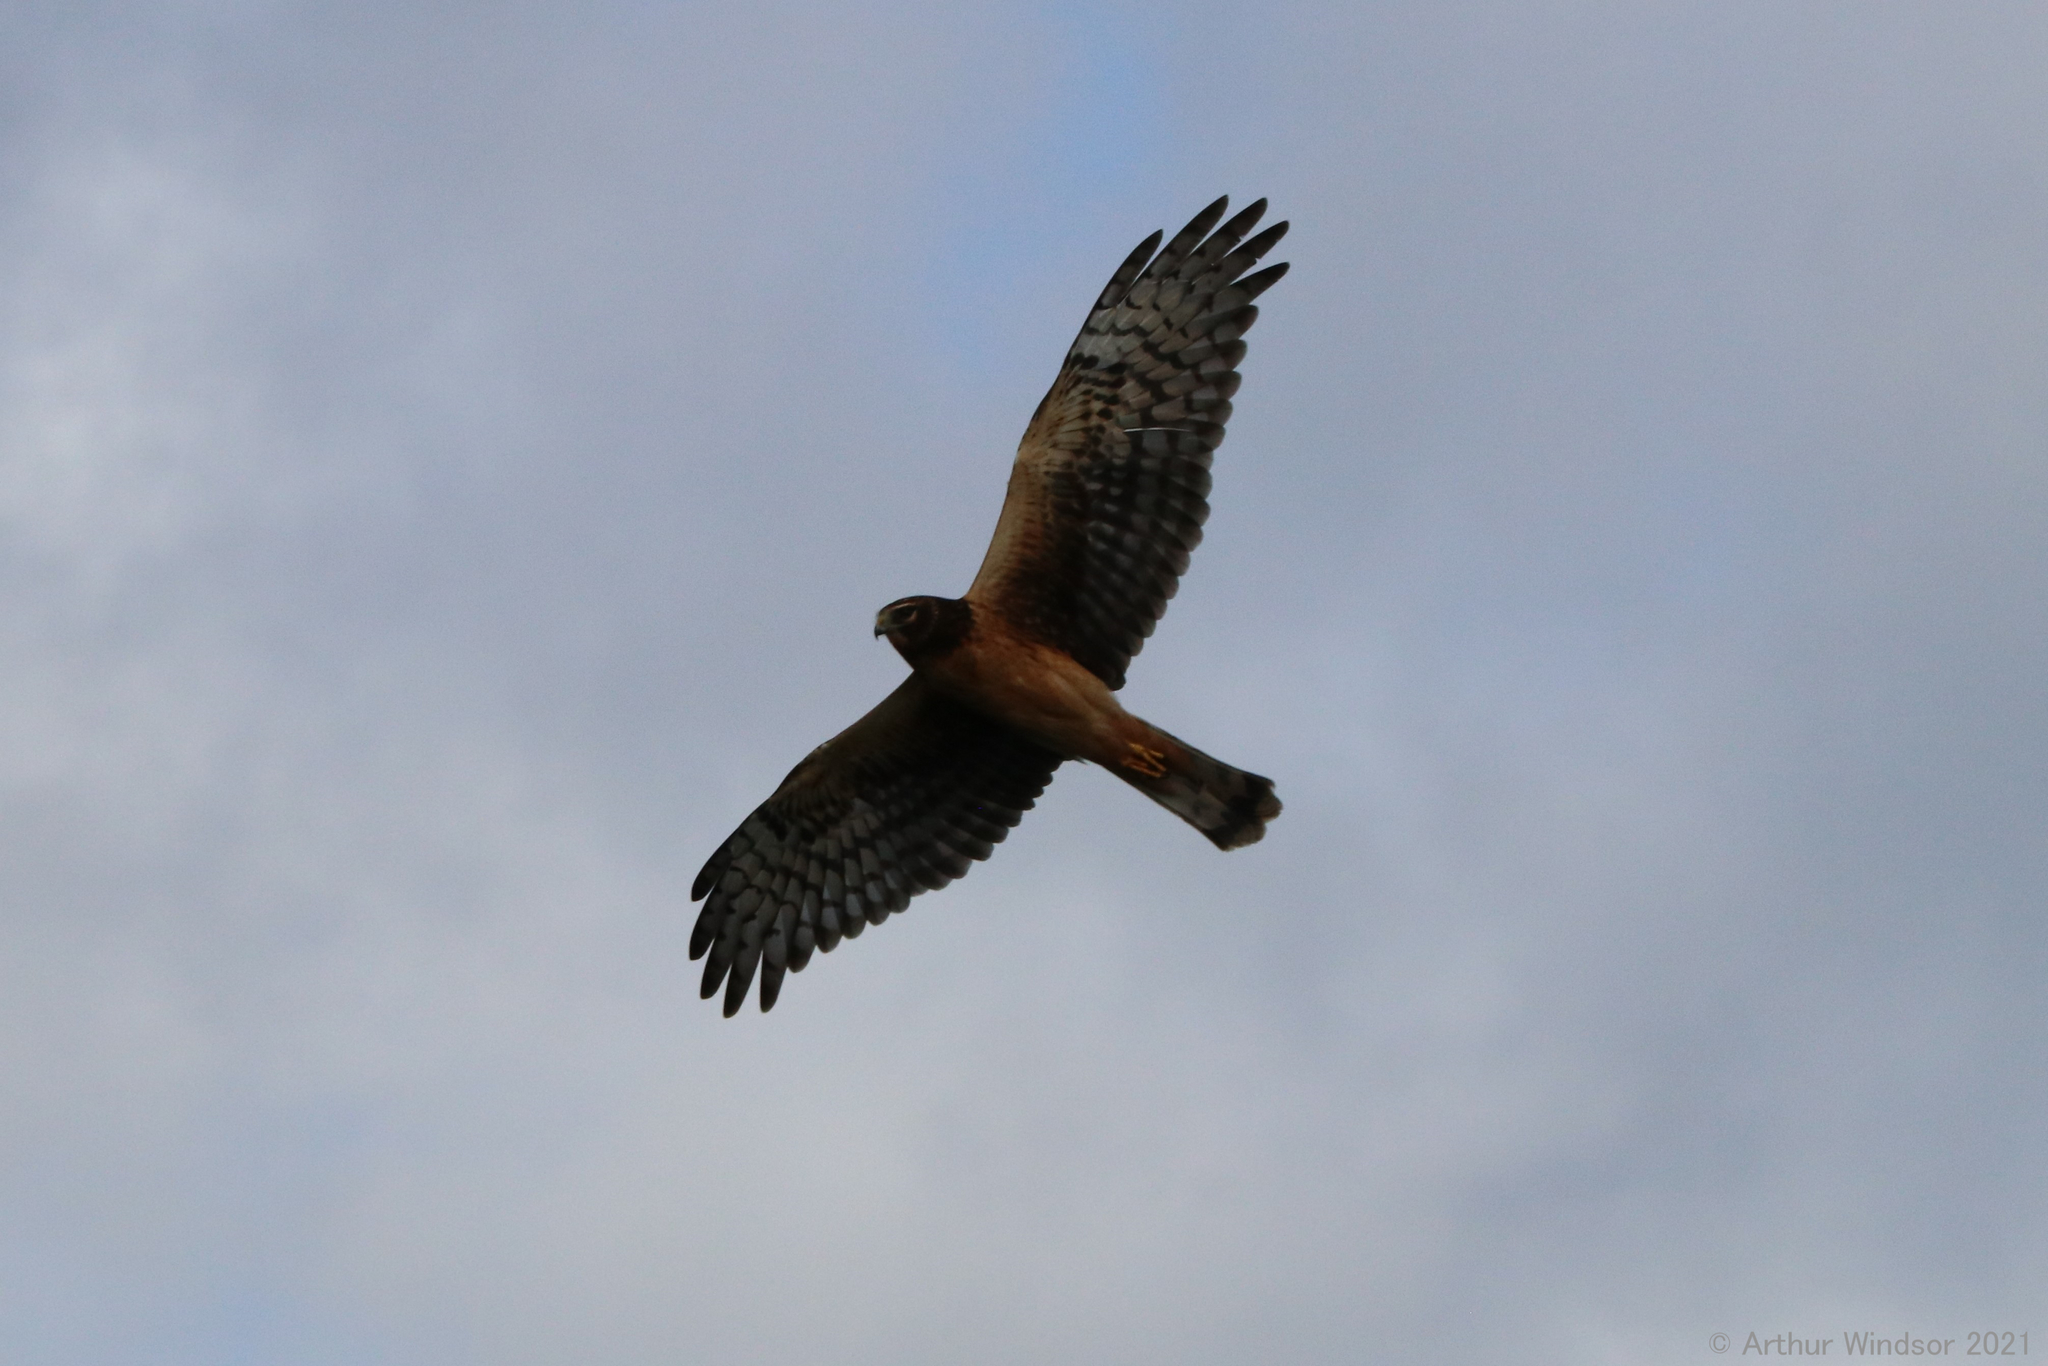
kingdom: Animalia
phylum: Chordata
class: Aves
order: Accipitriformes
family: Accipitridae
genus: Circus
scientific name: Circus cyaneus
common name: Hen harrier
